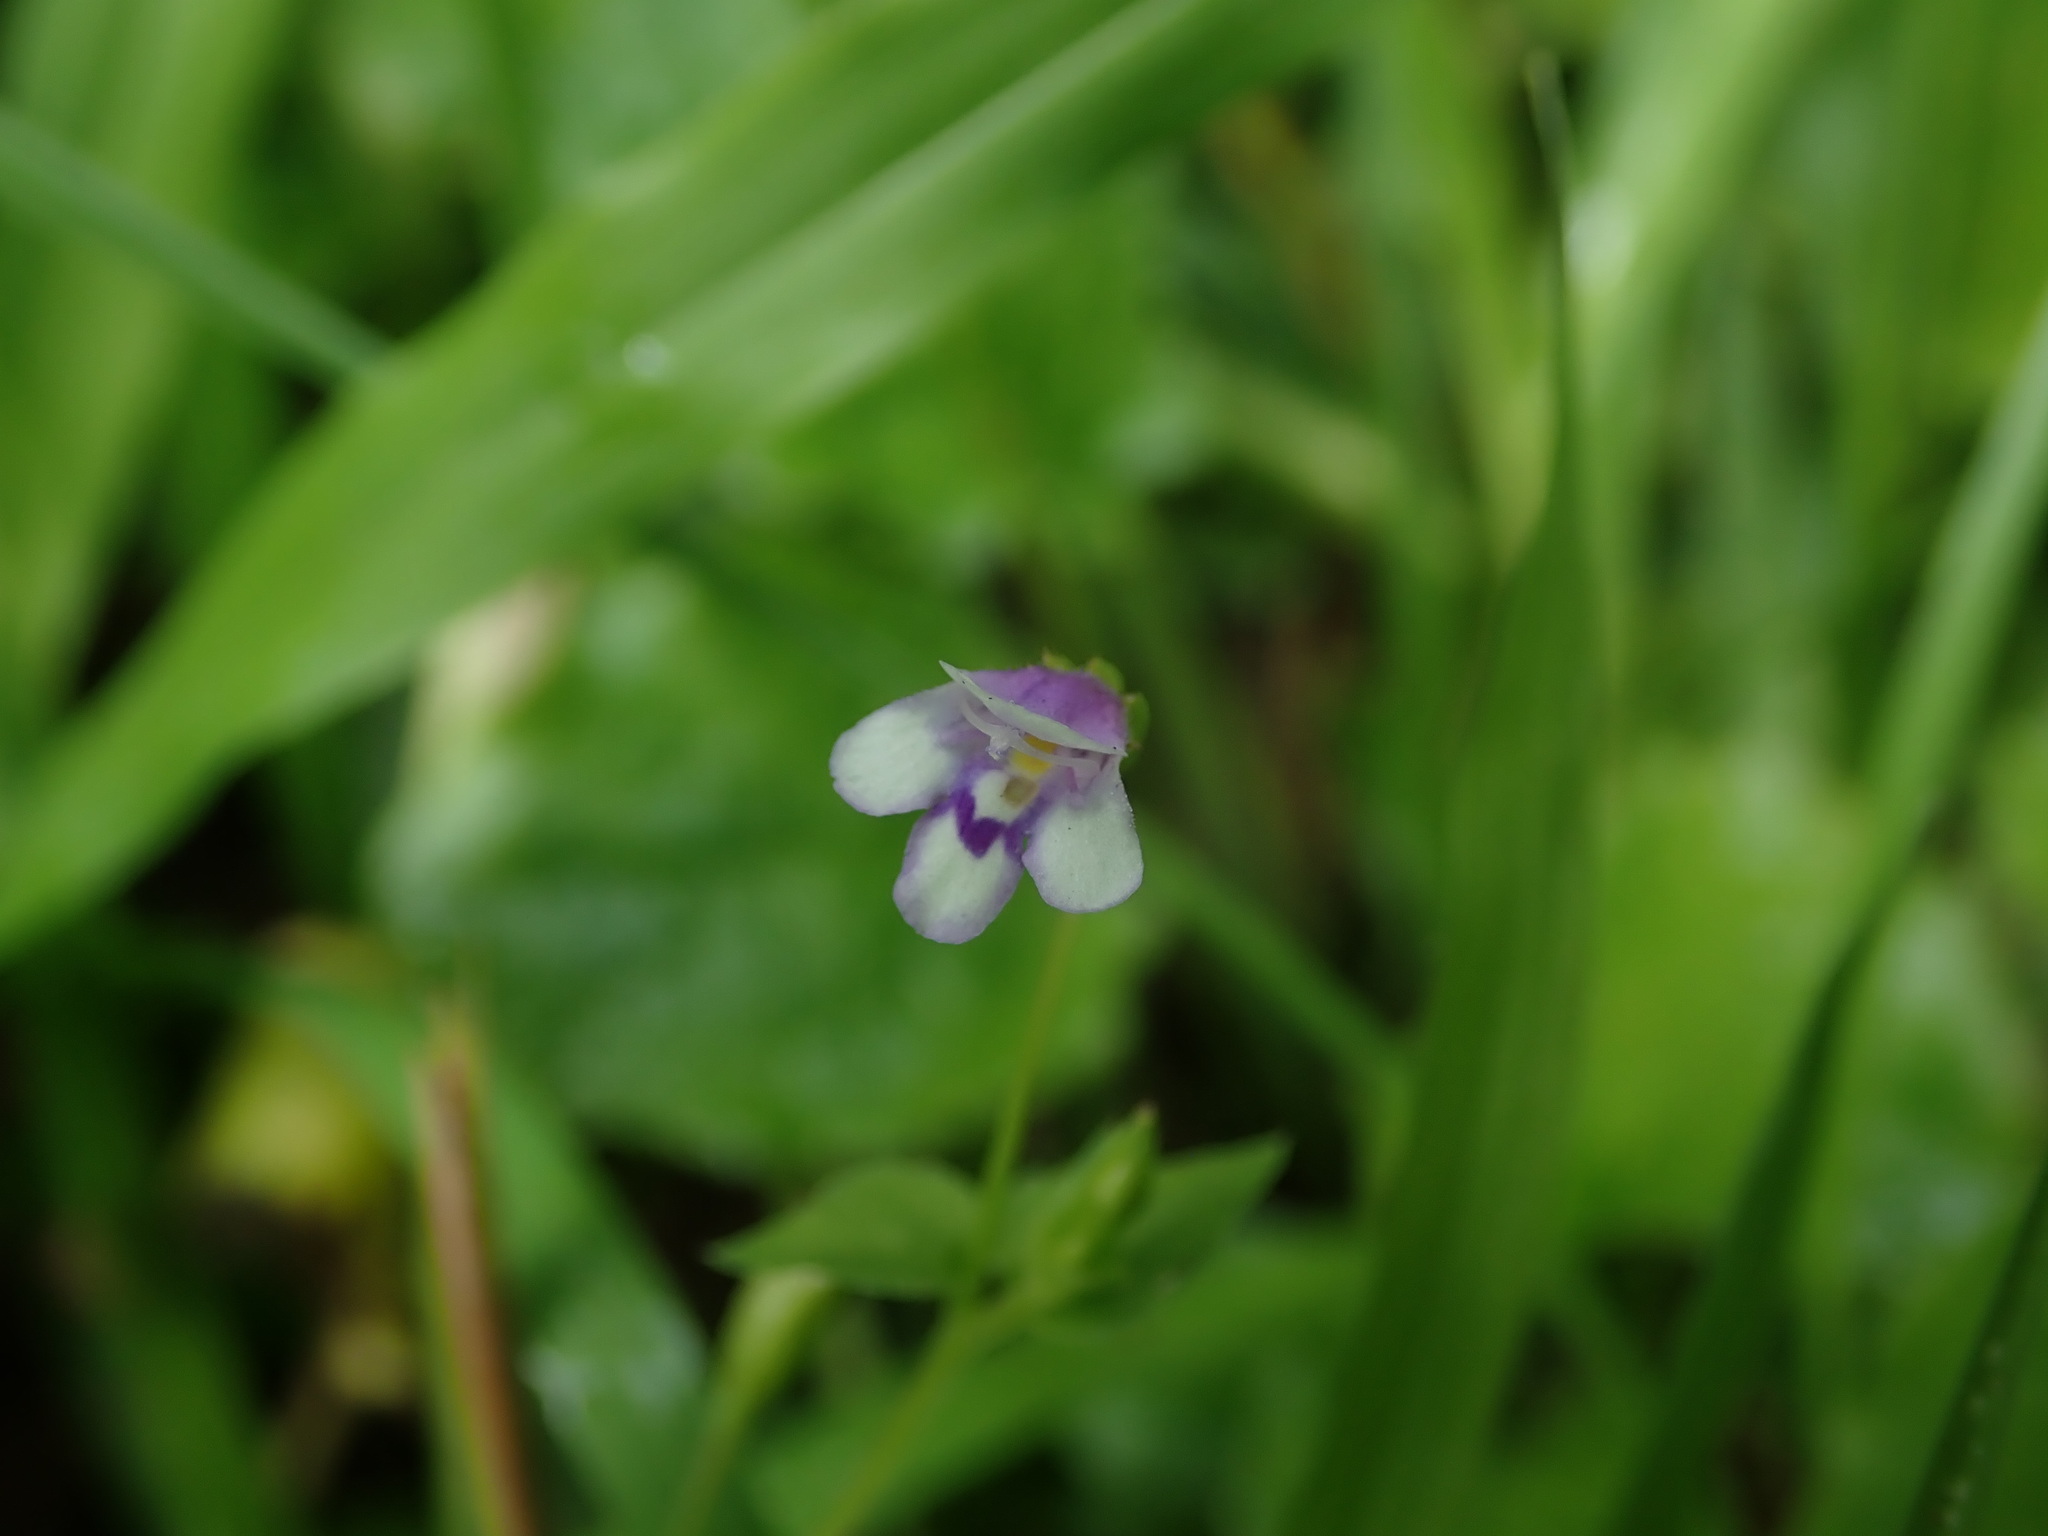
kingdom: Plantae
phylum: Tracheophyta
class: Magnoliopsida
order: Lamiales
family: Linderniaceae
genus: Torenia
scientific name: Torenia crustacea
